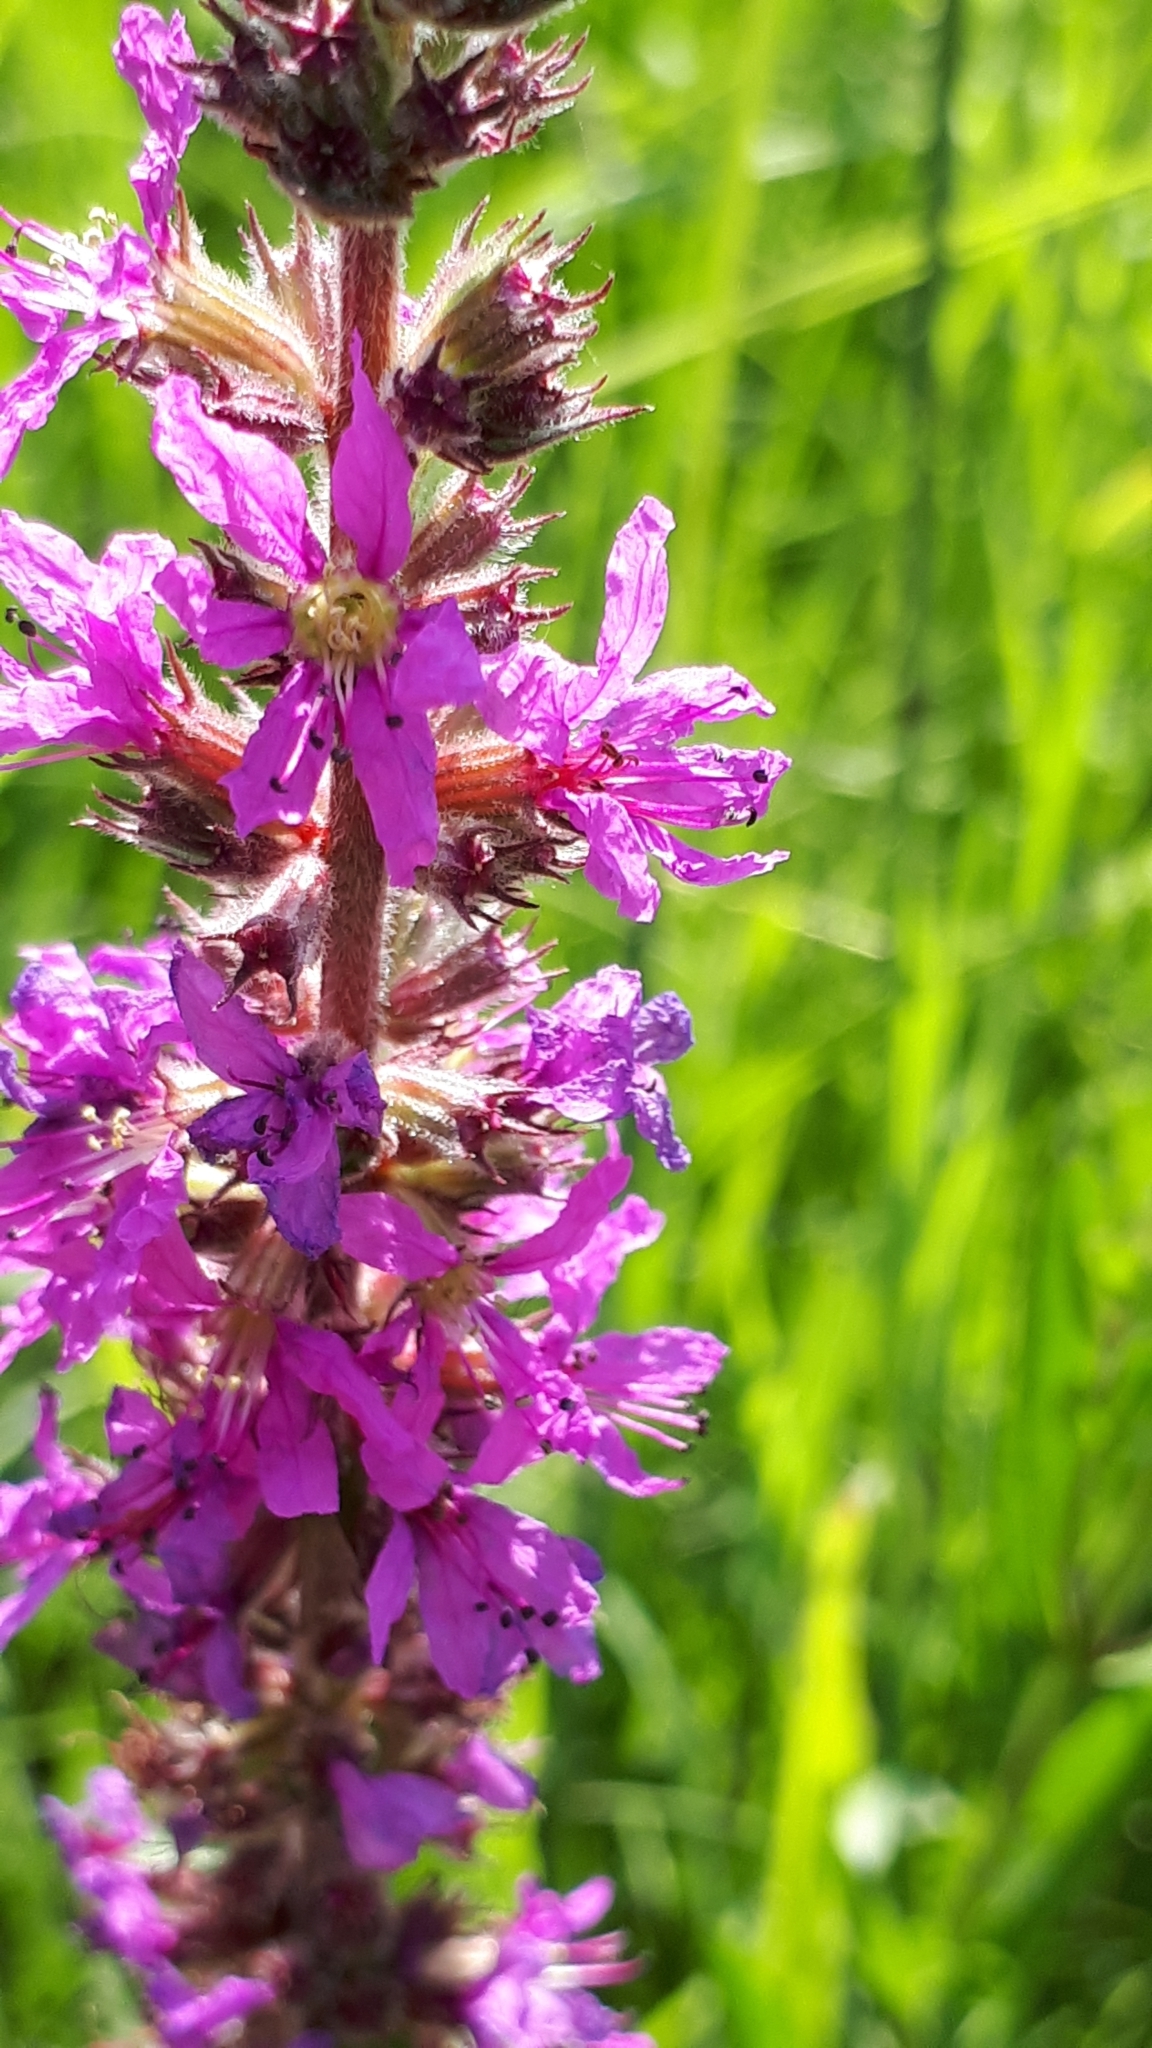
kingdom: Plantae
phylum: Tracheophyta
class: Magnoliopsida
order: Myrtales
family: Lythraceae
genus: Lythrum
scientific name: Lythrum salicaria
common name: Purple loosestrife
